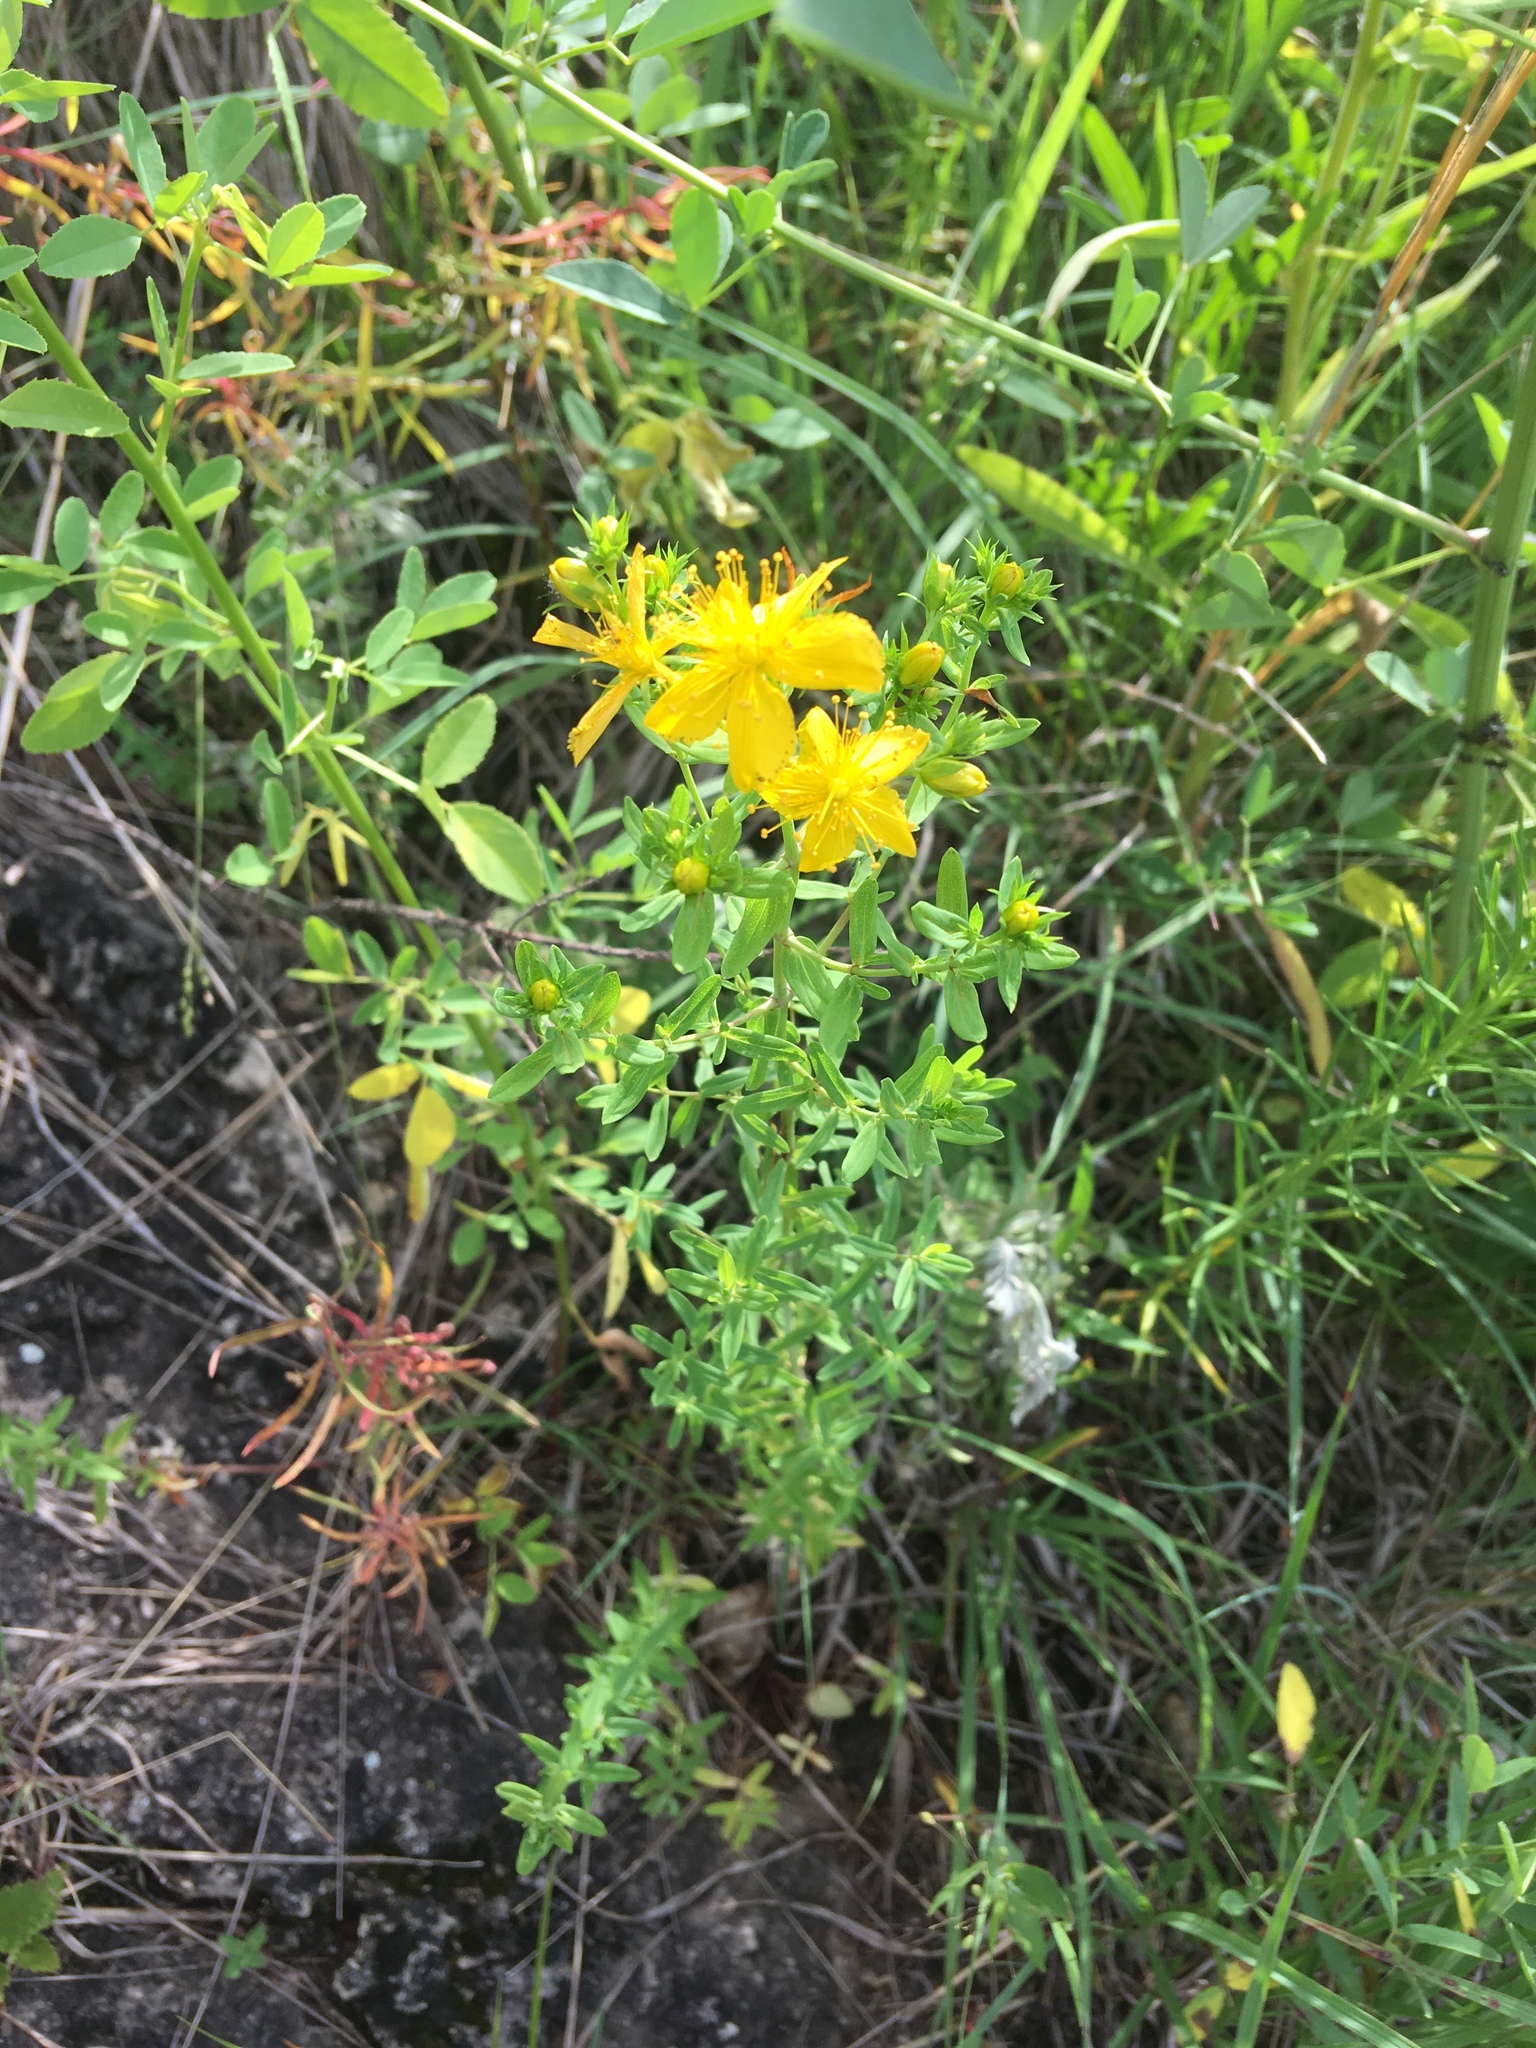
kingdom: Plantae
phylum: Tracheophyta
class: Magnoliopsida
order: Malpighiales
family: Hypericaceae
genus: Hypericum
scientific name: Hypericum perforatum
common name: Common st. johnswort
